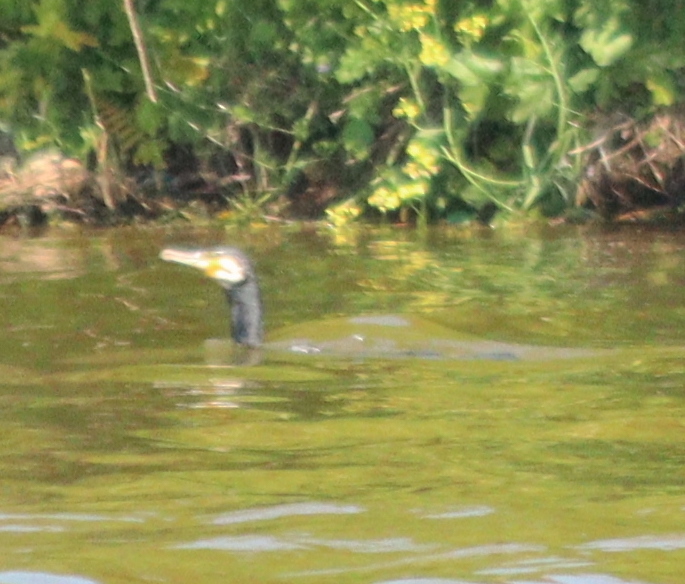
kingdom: Animalia
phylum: Chordata
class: Aves
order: Suliformes
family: Phalacrocoracidae
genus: Phalacrocorax
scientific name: Phalacrocorax carbo
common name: Great cormorant
